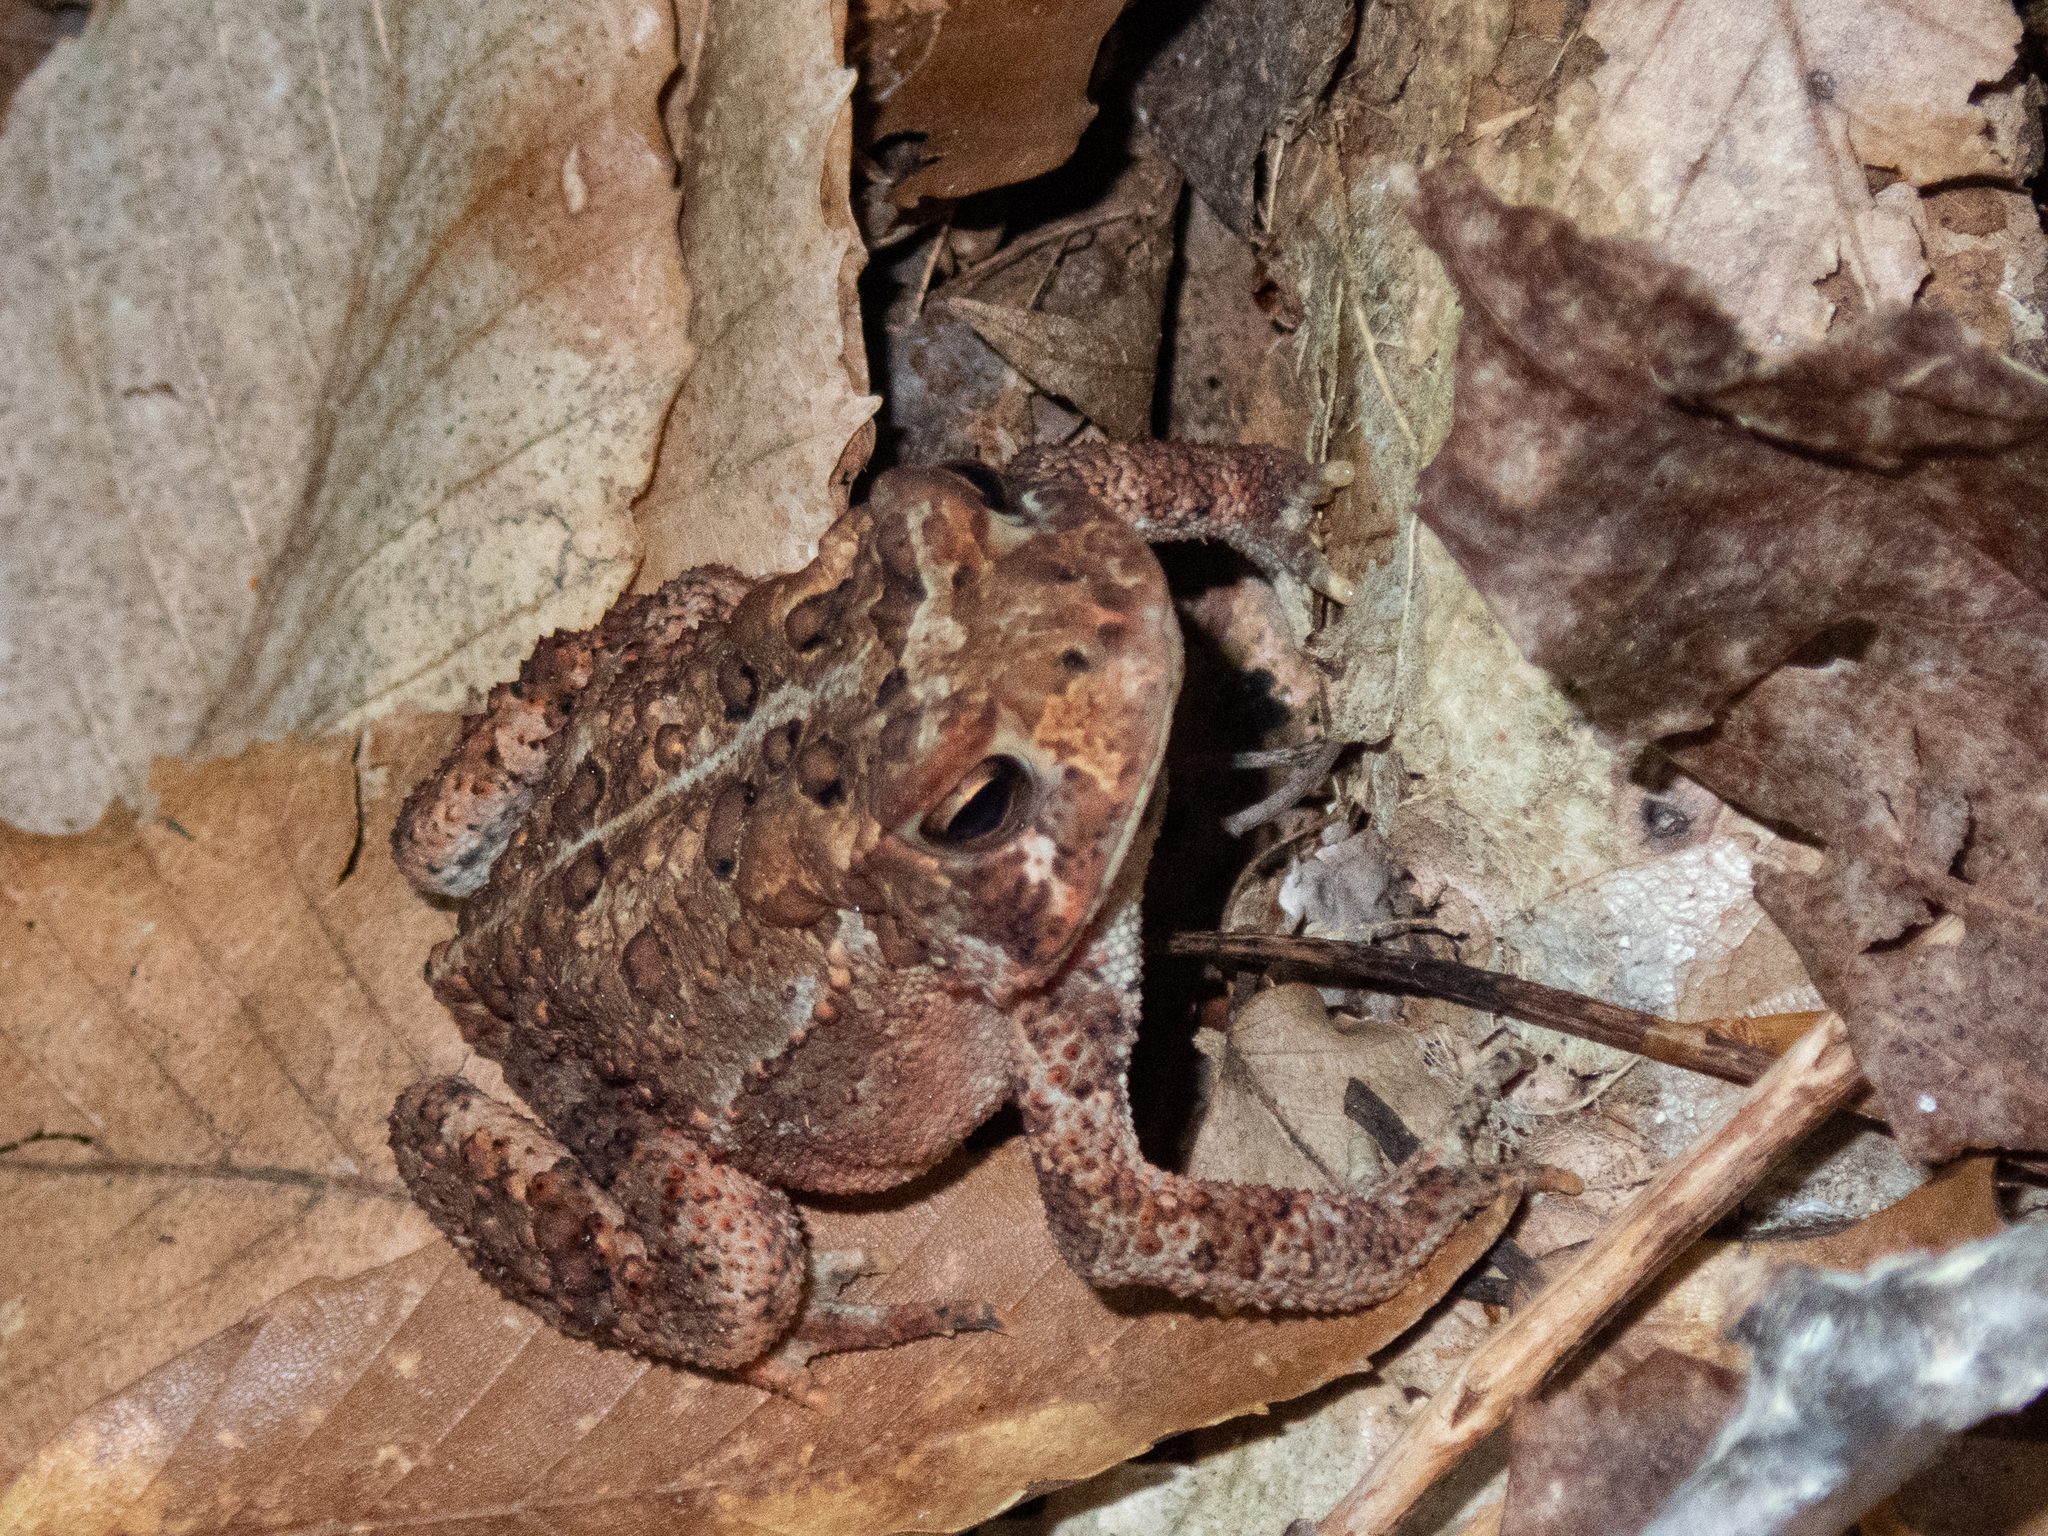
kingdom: Animalia
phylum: Chordata
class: Amphibia
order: Anura
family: Bufonidae
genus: Anaxyrus
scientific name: Anaxyrus americanus
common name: American toad
